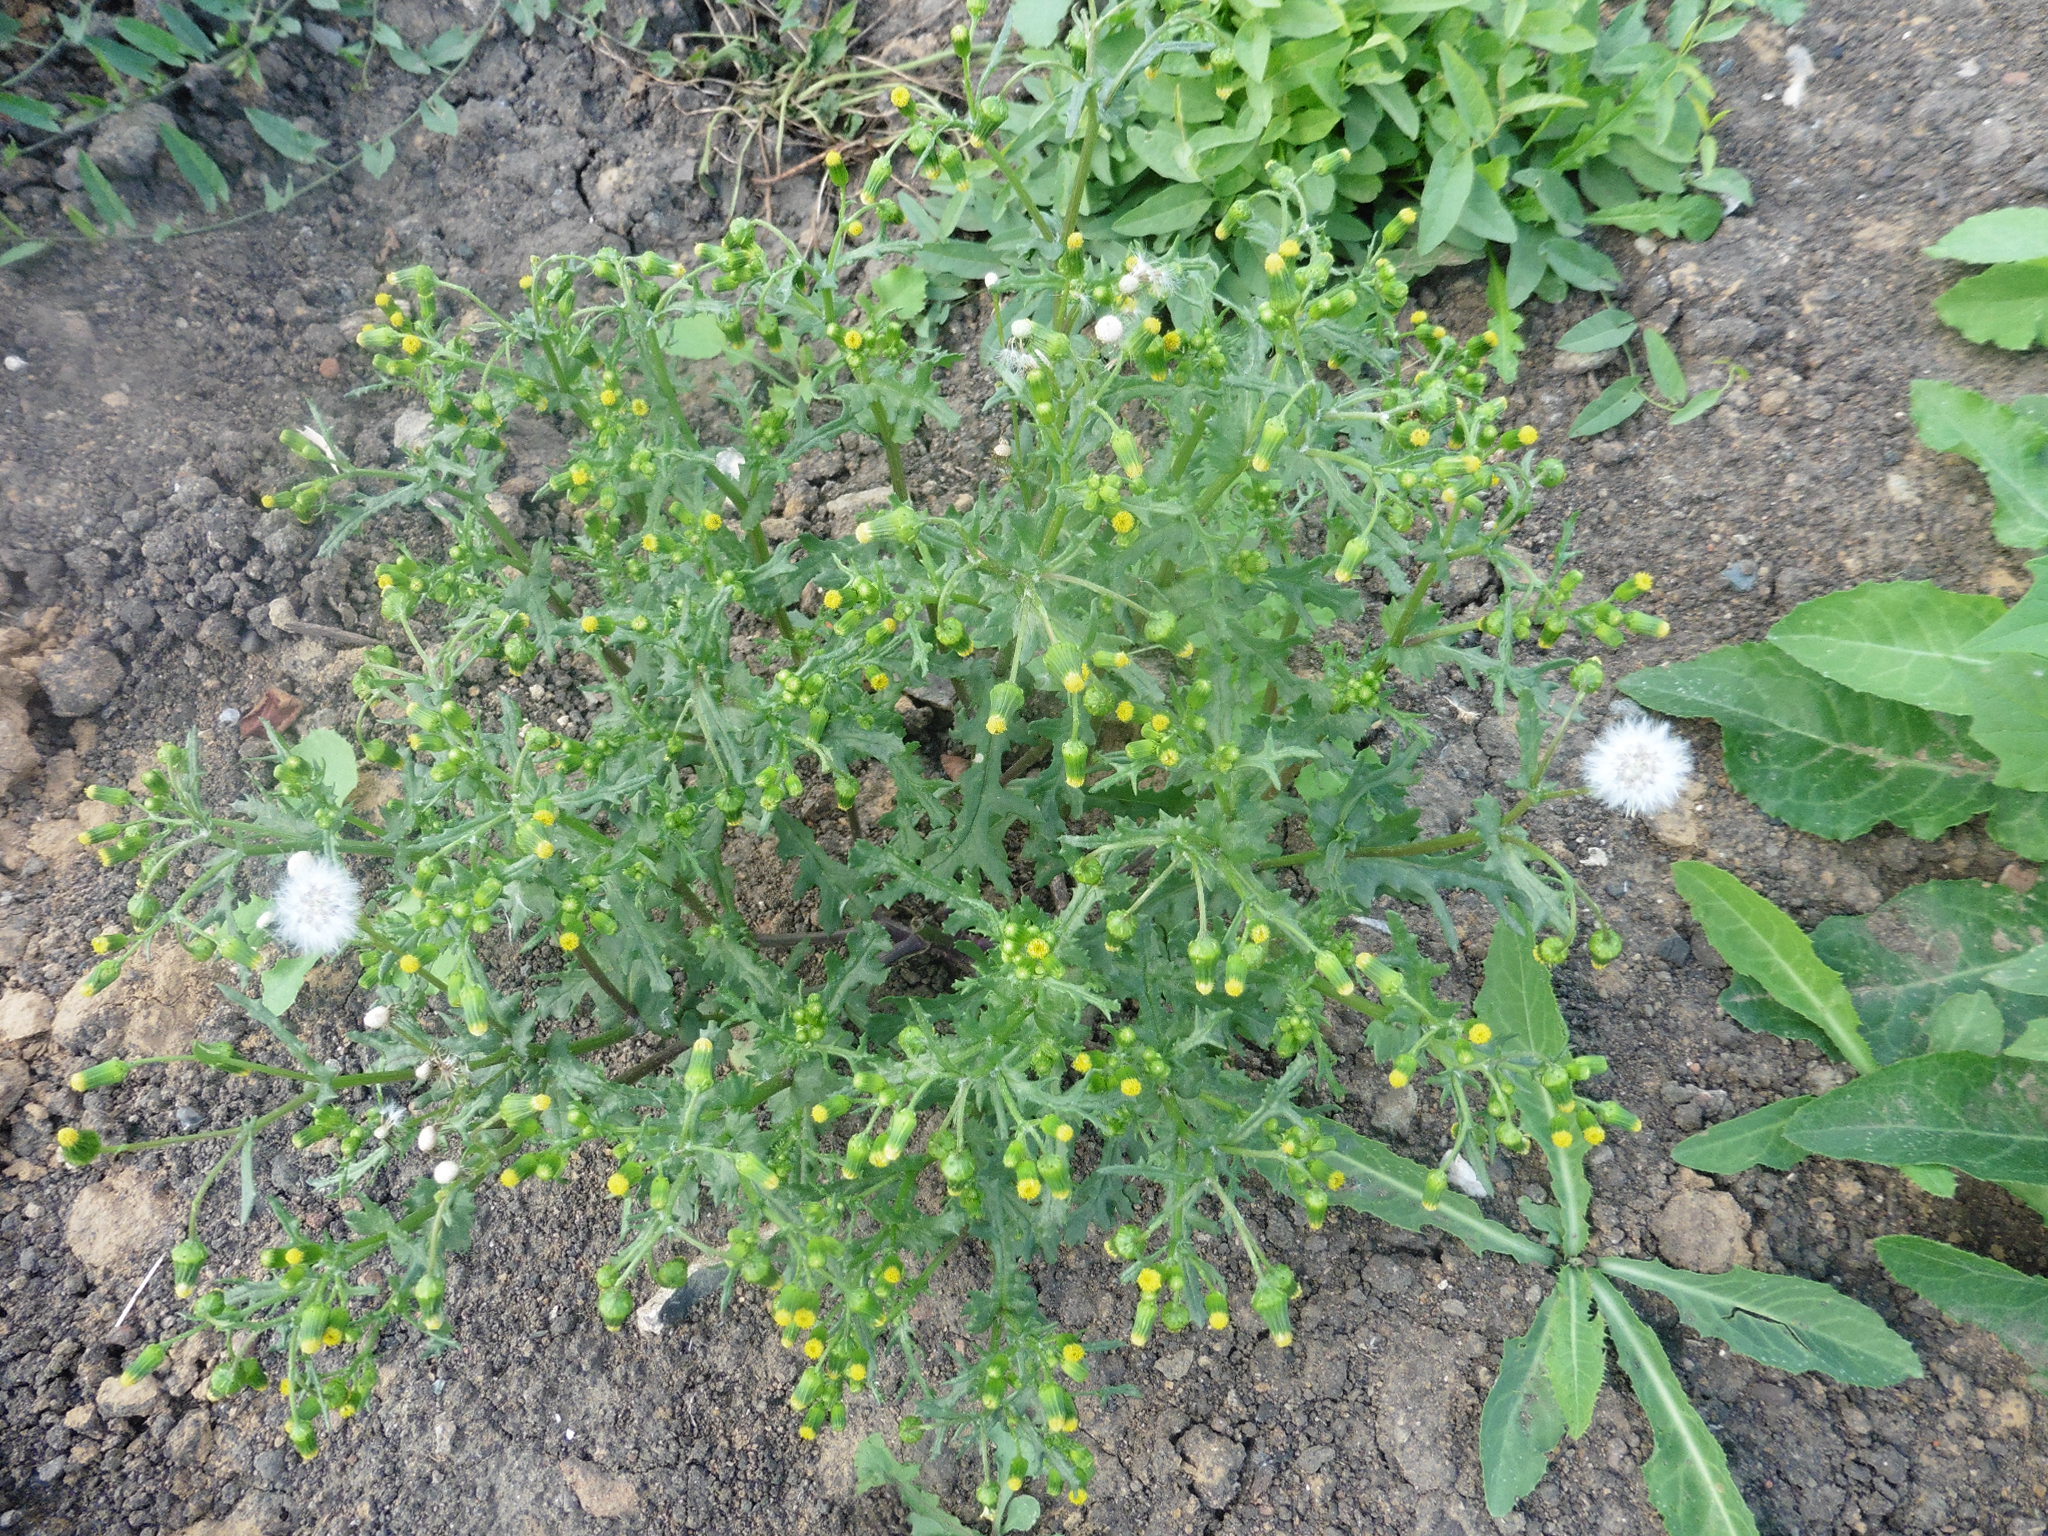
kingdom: Plantae
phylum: Tracheophyta
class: Magnoliopsida
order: Asterales
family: Asteraceae
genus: Senecio
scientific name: Senecio vulgaris
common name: Old-man-in-the-spring
